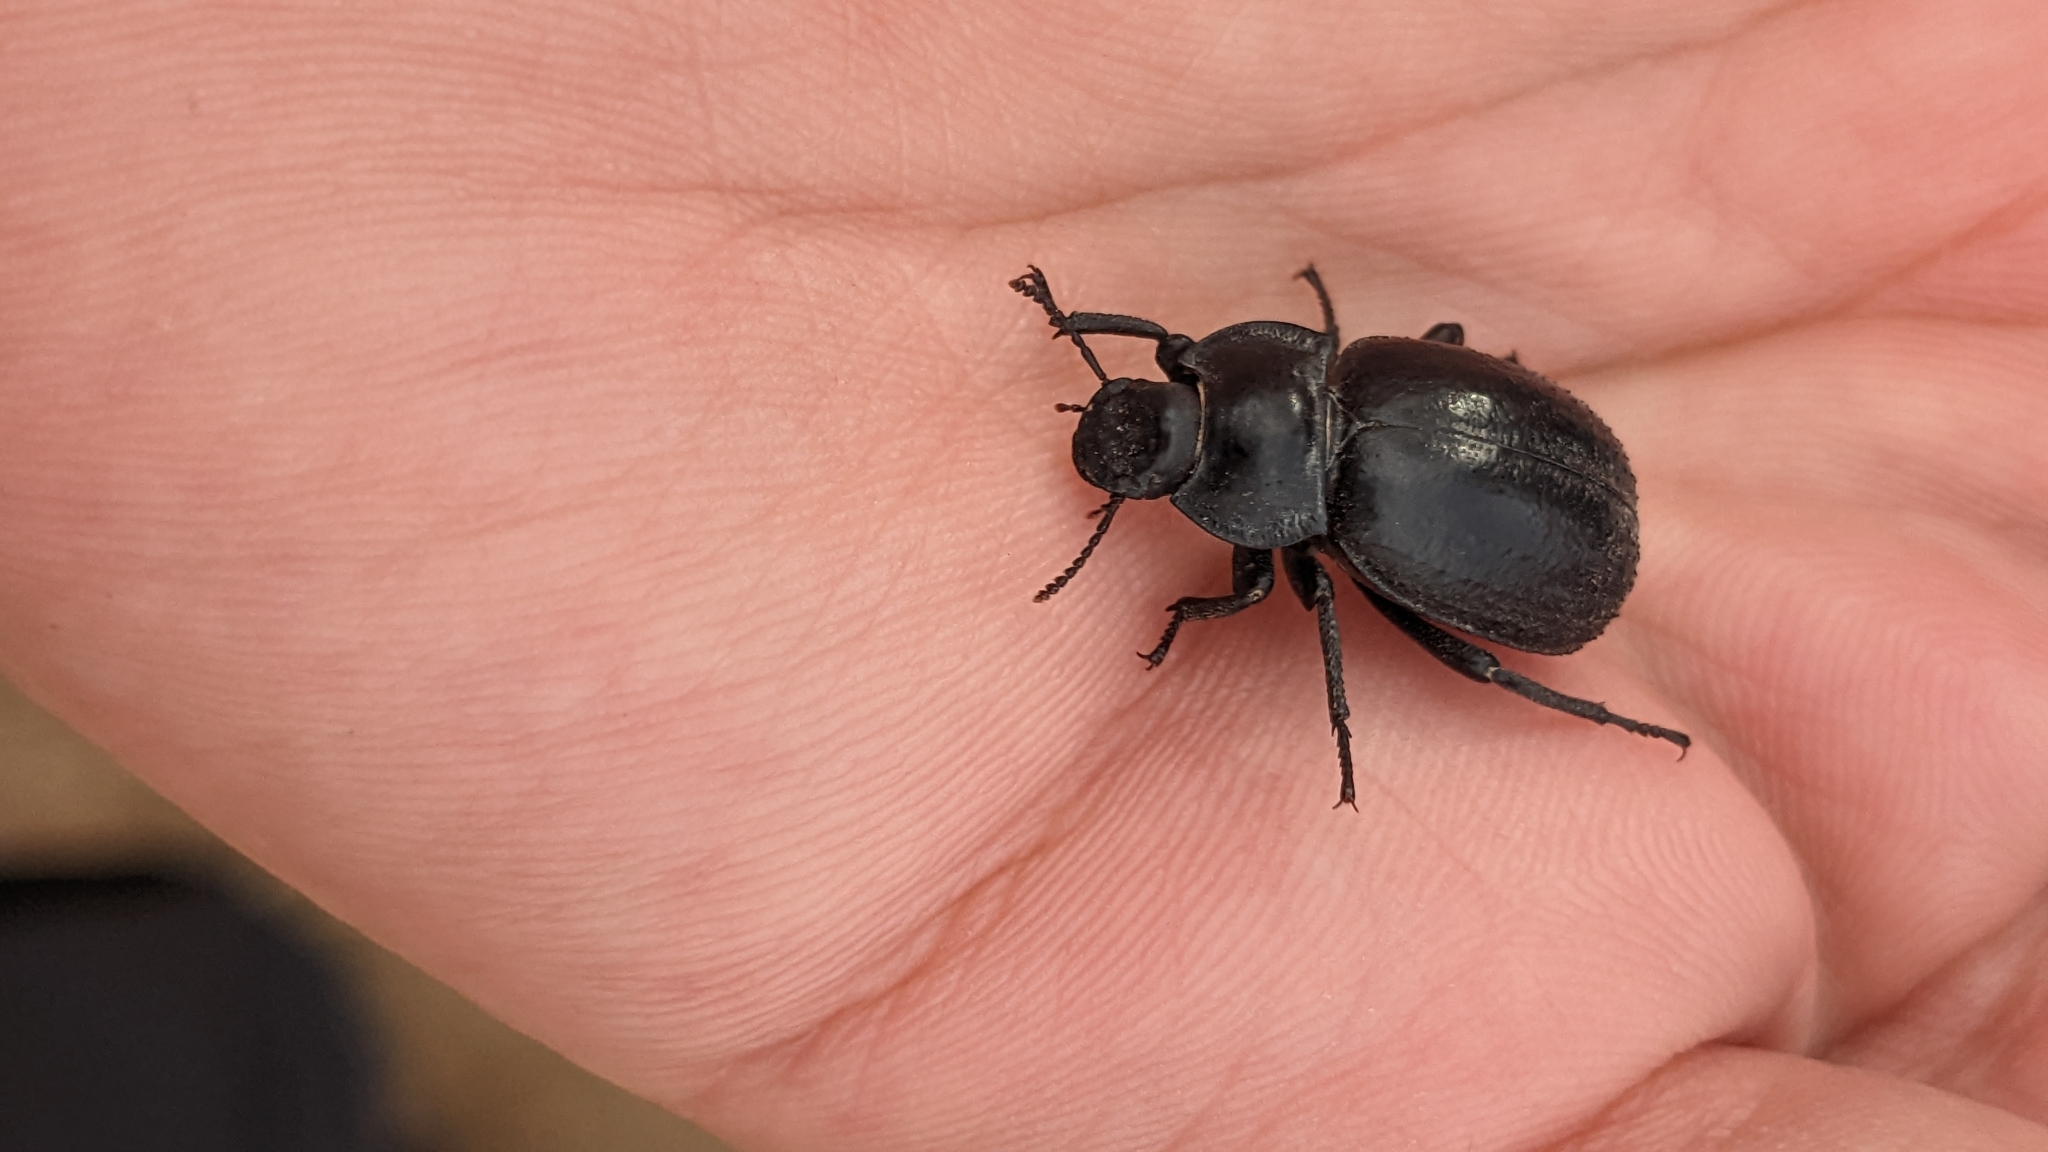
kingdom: Animalia
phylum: Arthropoda
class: Insecta
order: Coleoptera
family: Tenebrionidae
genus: Morica
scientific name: Morica
